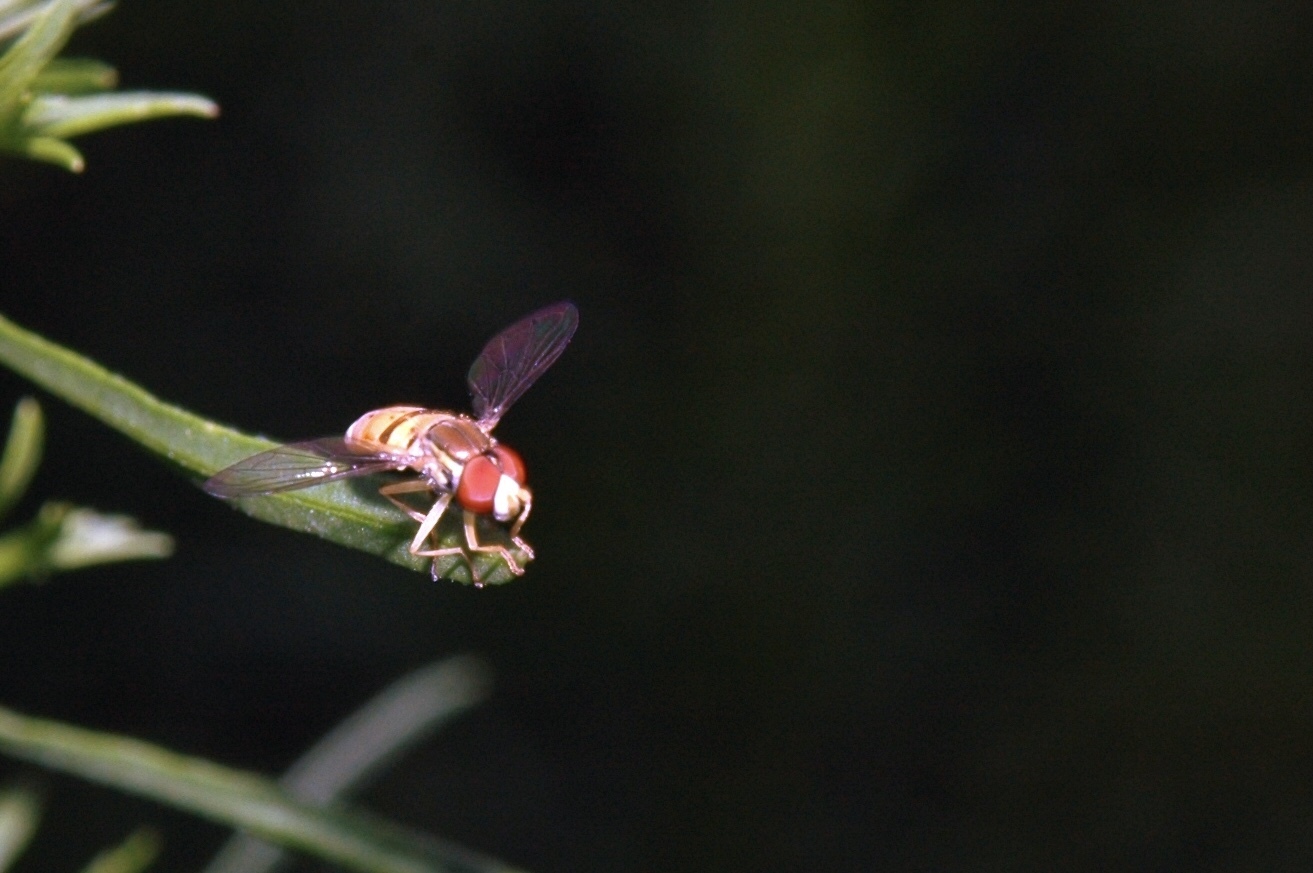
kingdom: Animalia
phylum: Arthropoda
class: Insecta
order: Diptera
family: Syrphidae
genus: Toxomerus
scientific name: Toxomerus
